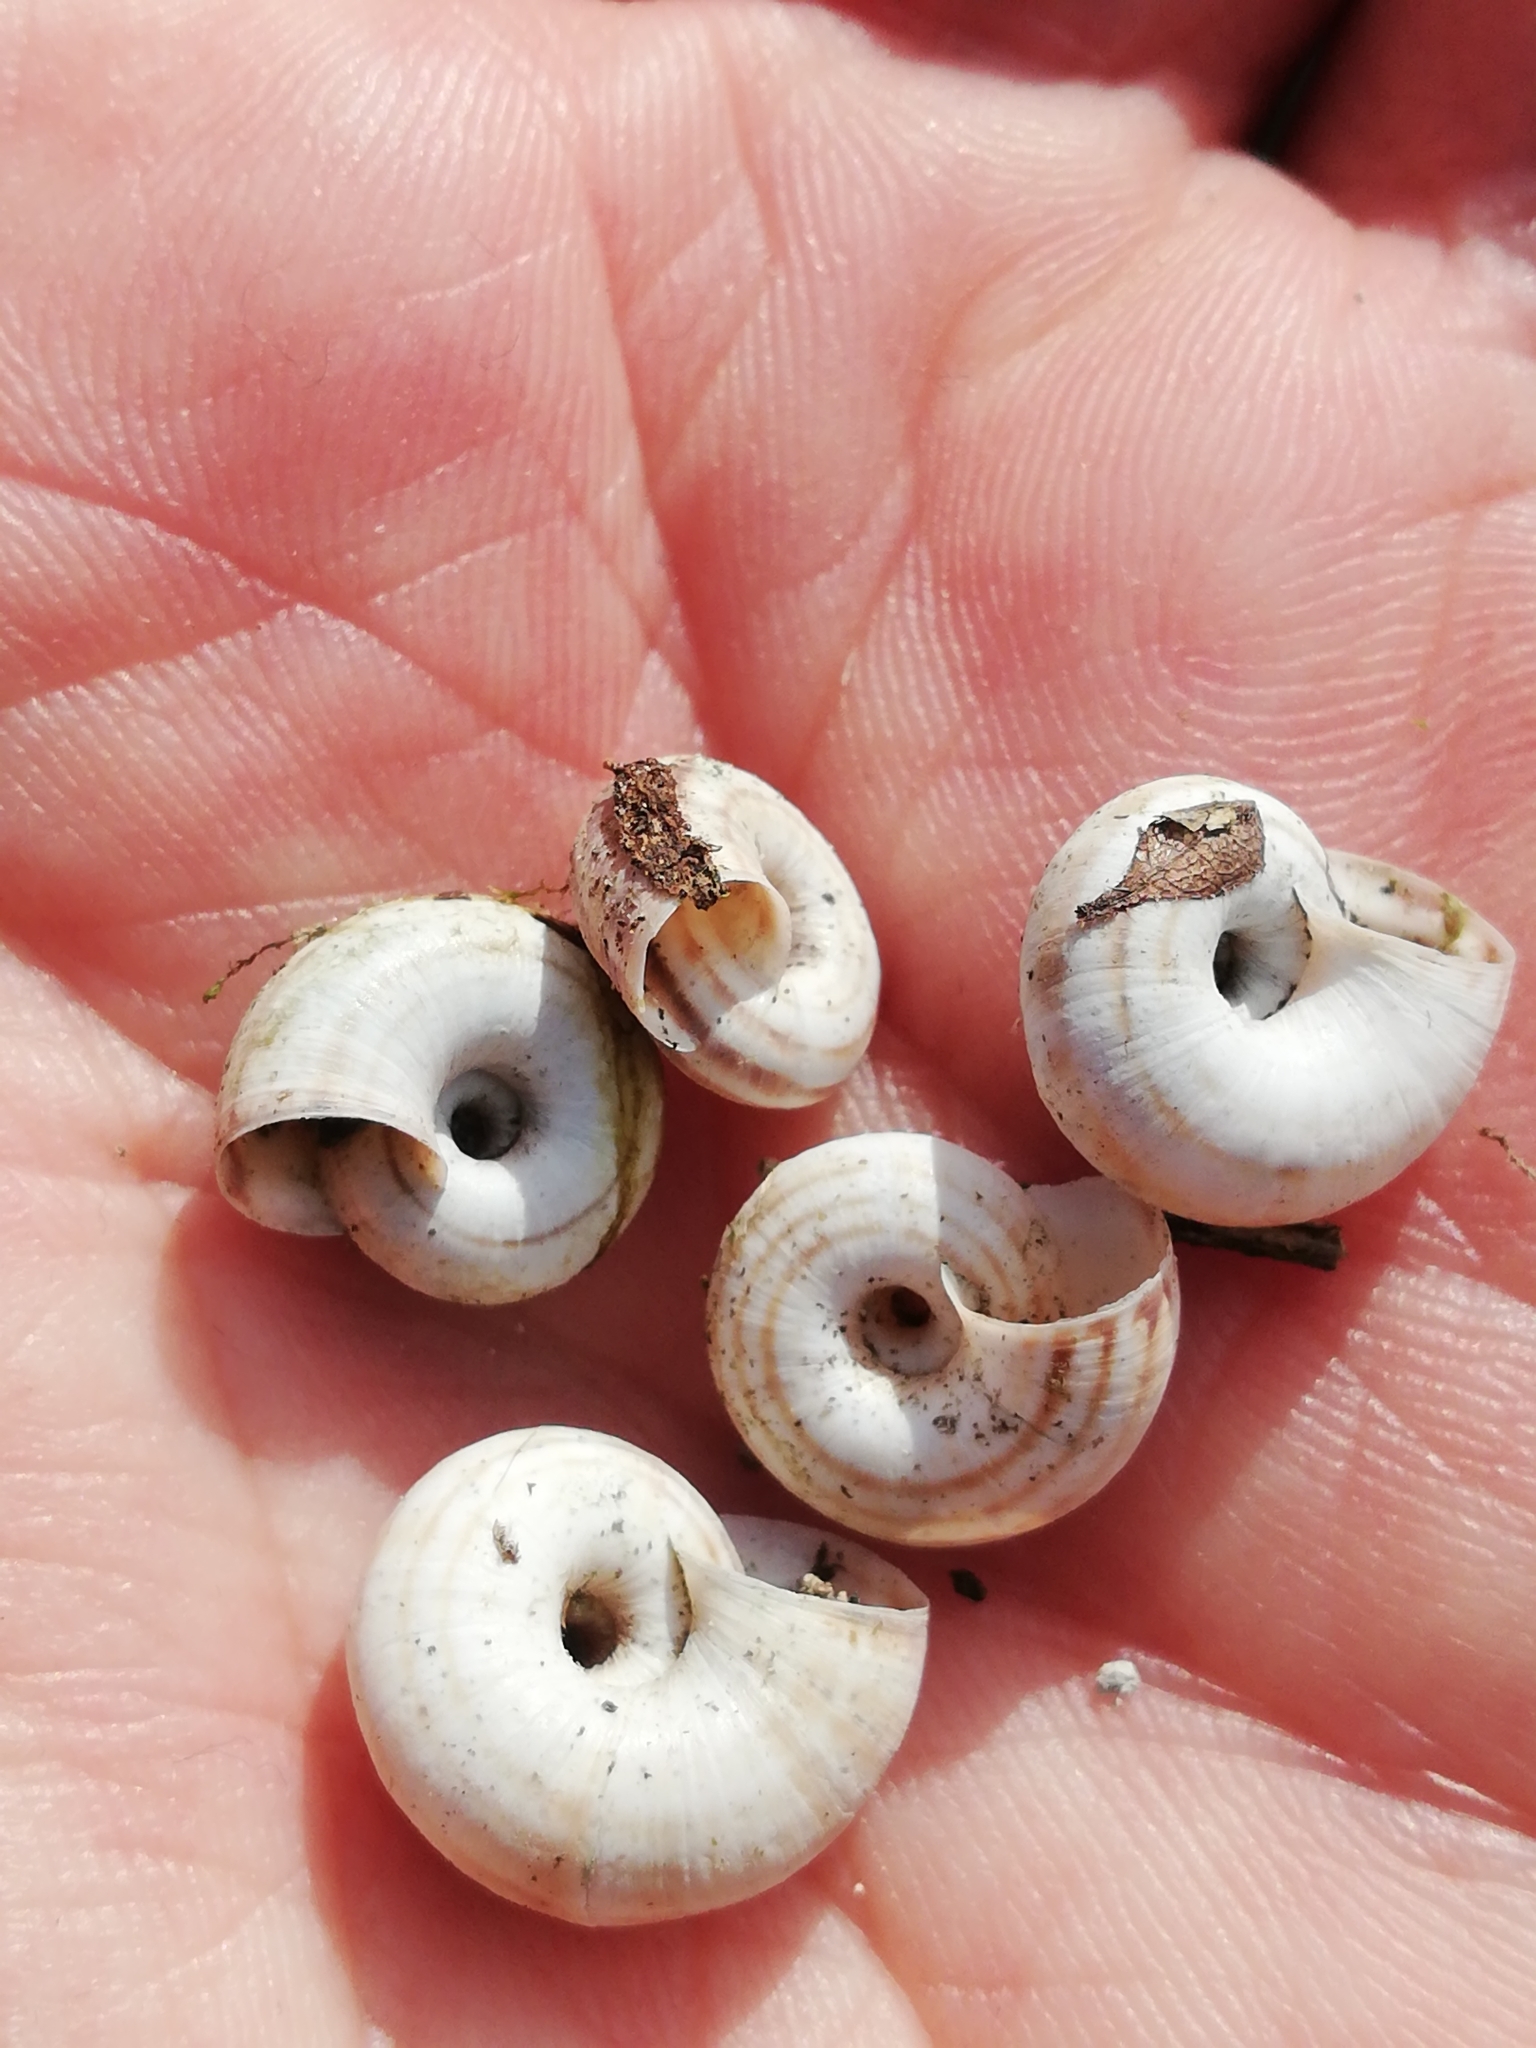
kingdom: Animalia
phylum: Mollusca
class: Gastropoda
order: Stylommatophora
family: Geomitridae
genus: Cernuella
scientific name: Cernuella neglecta
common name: Neglected dune snail
